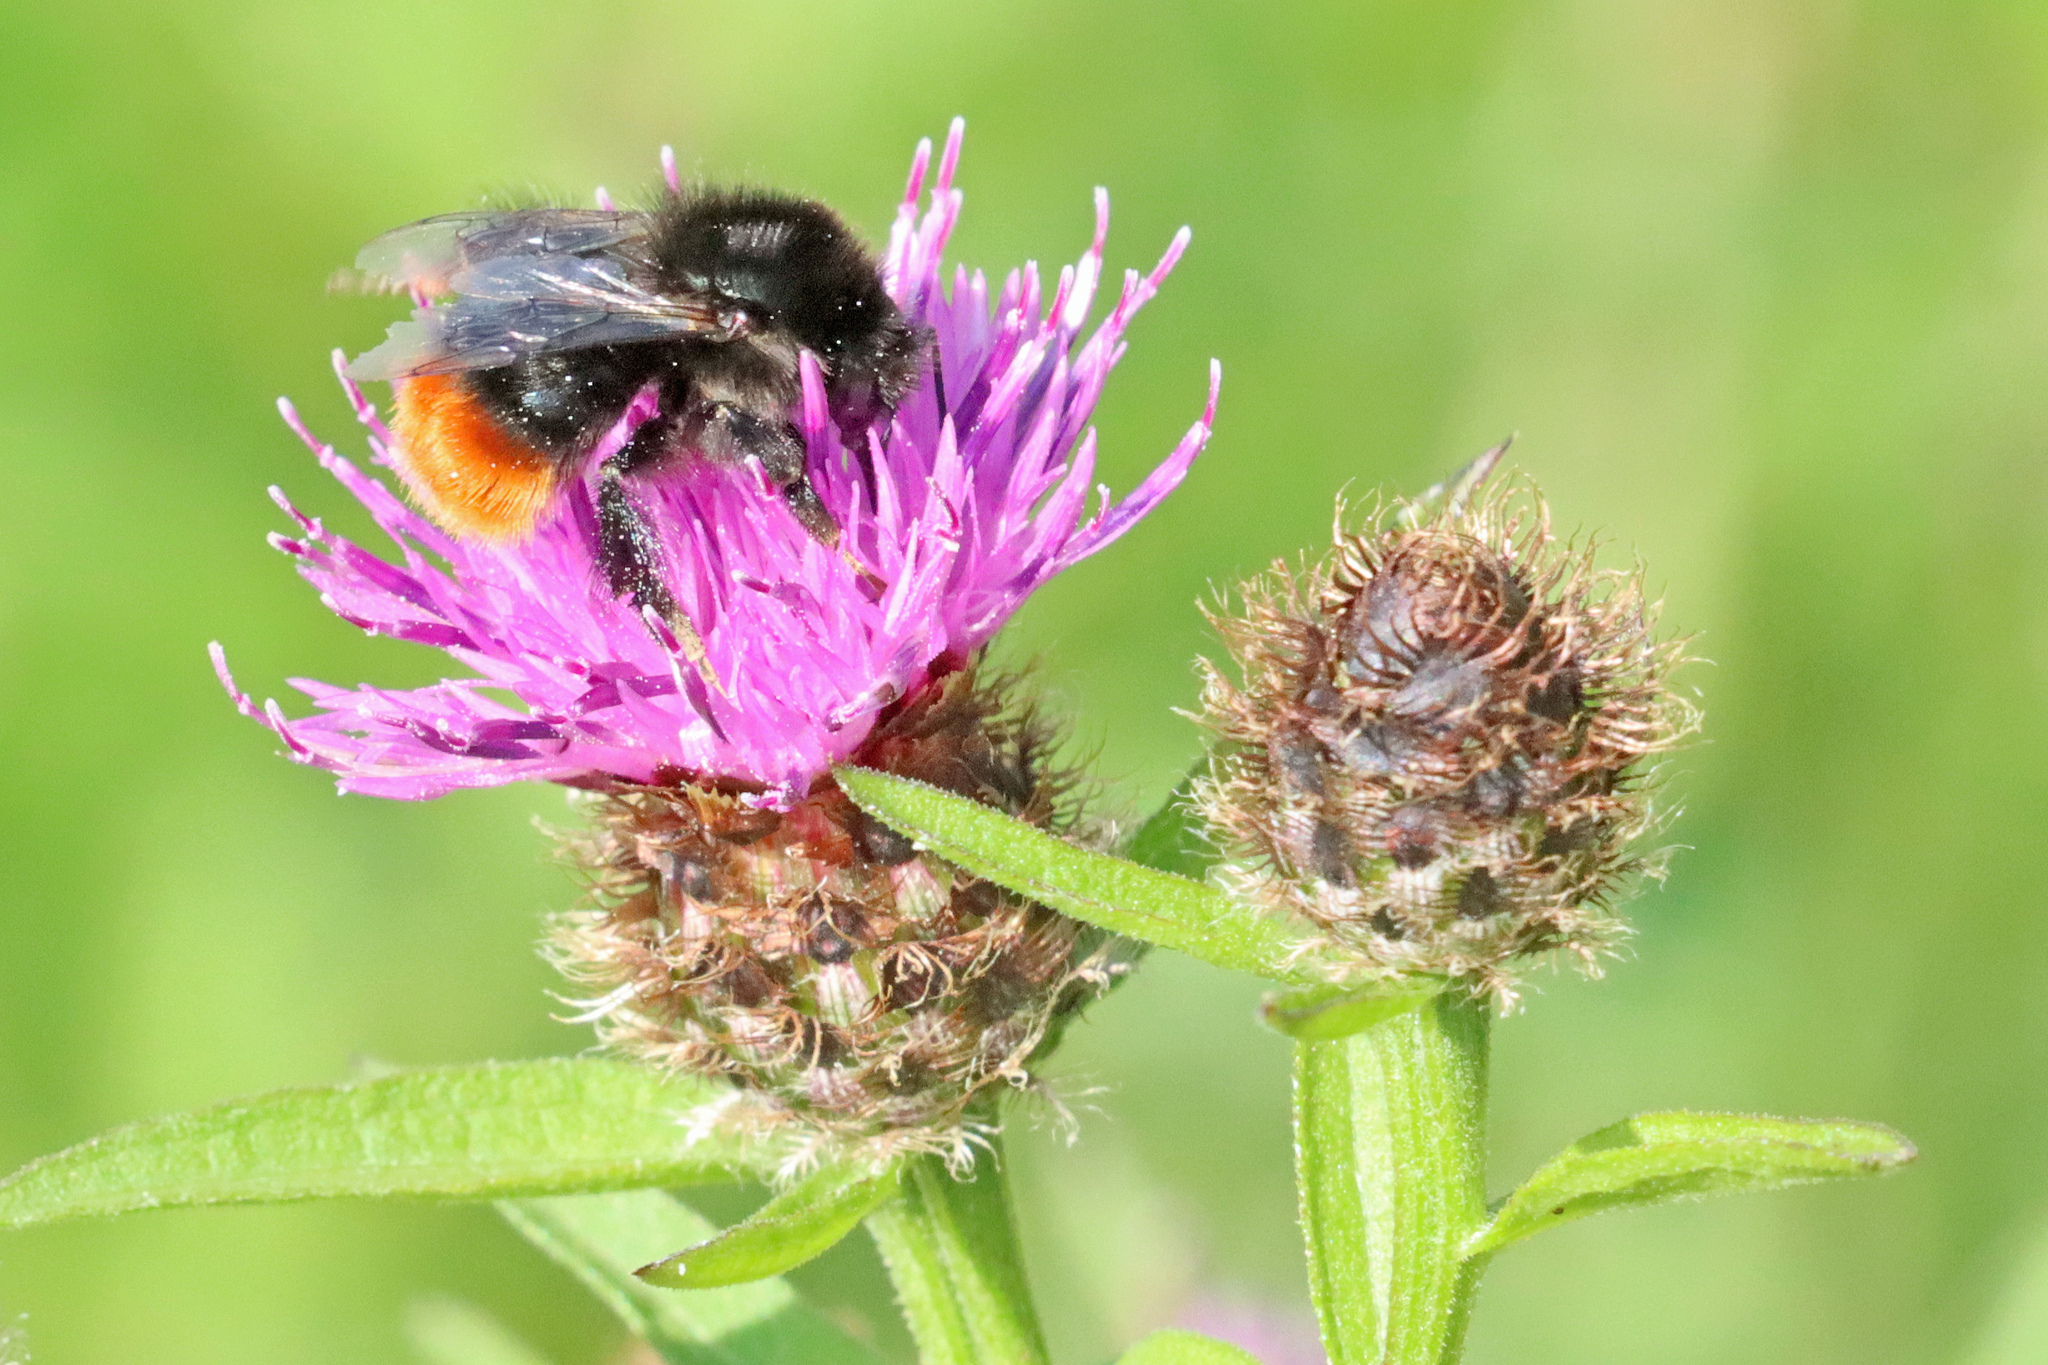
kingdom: Animalia
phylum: Arthropoda
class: Insecta
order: Hymenoptera
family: Apidae
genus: Bombus
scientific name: Bombus lapidarius
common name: Large red-tailed humble-bee
